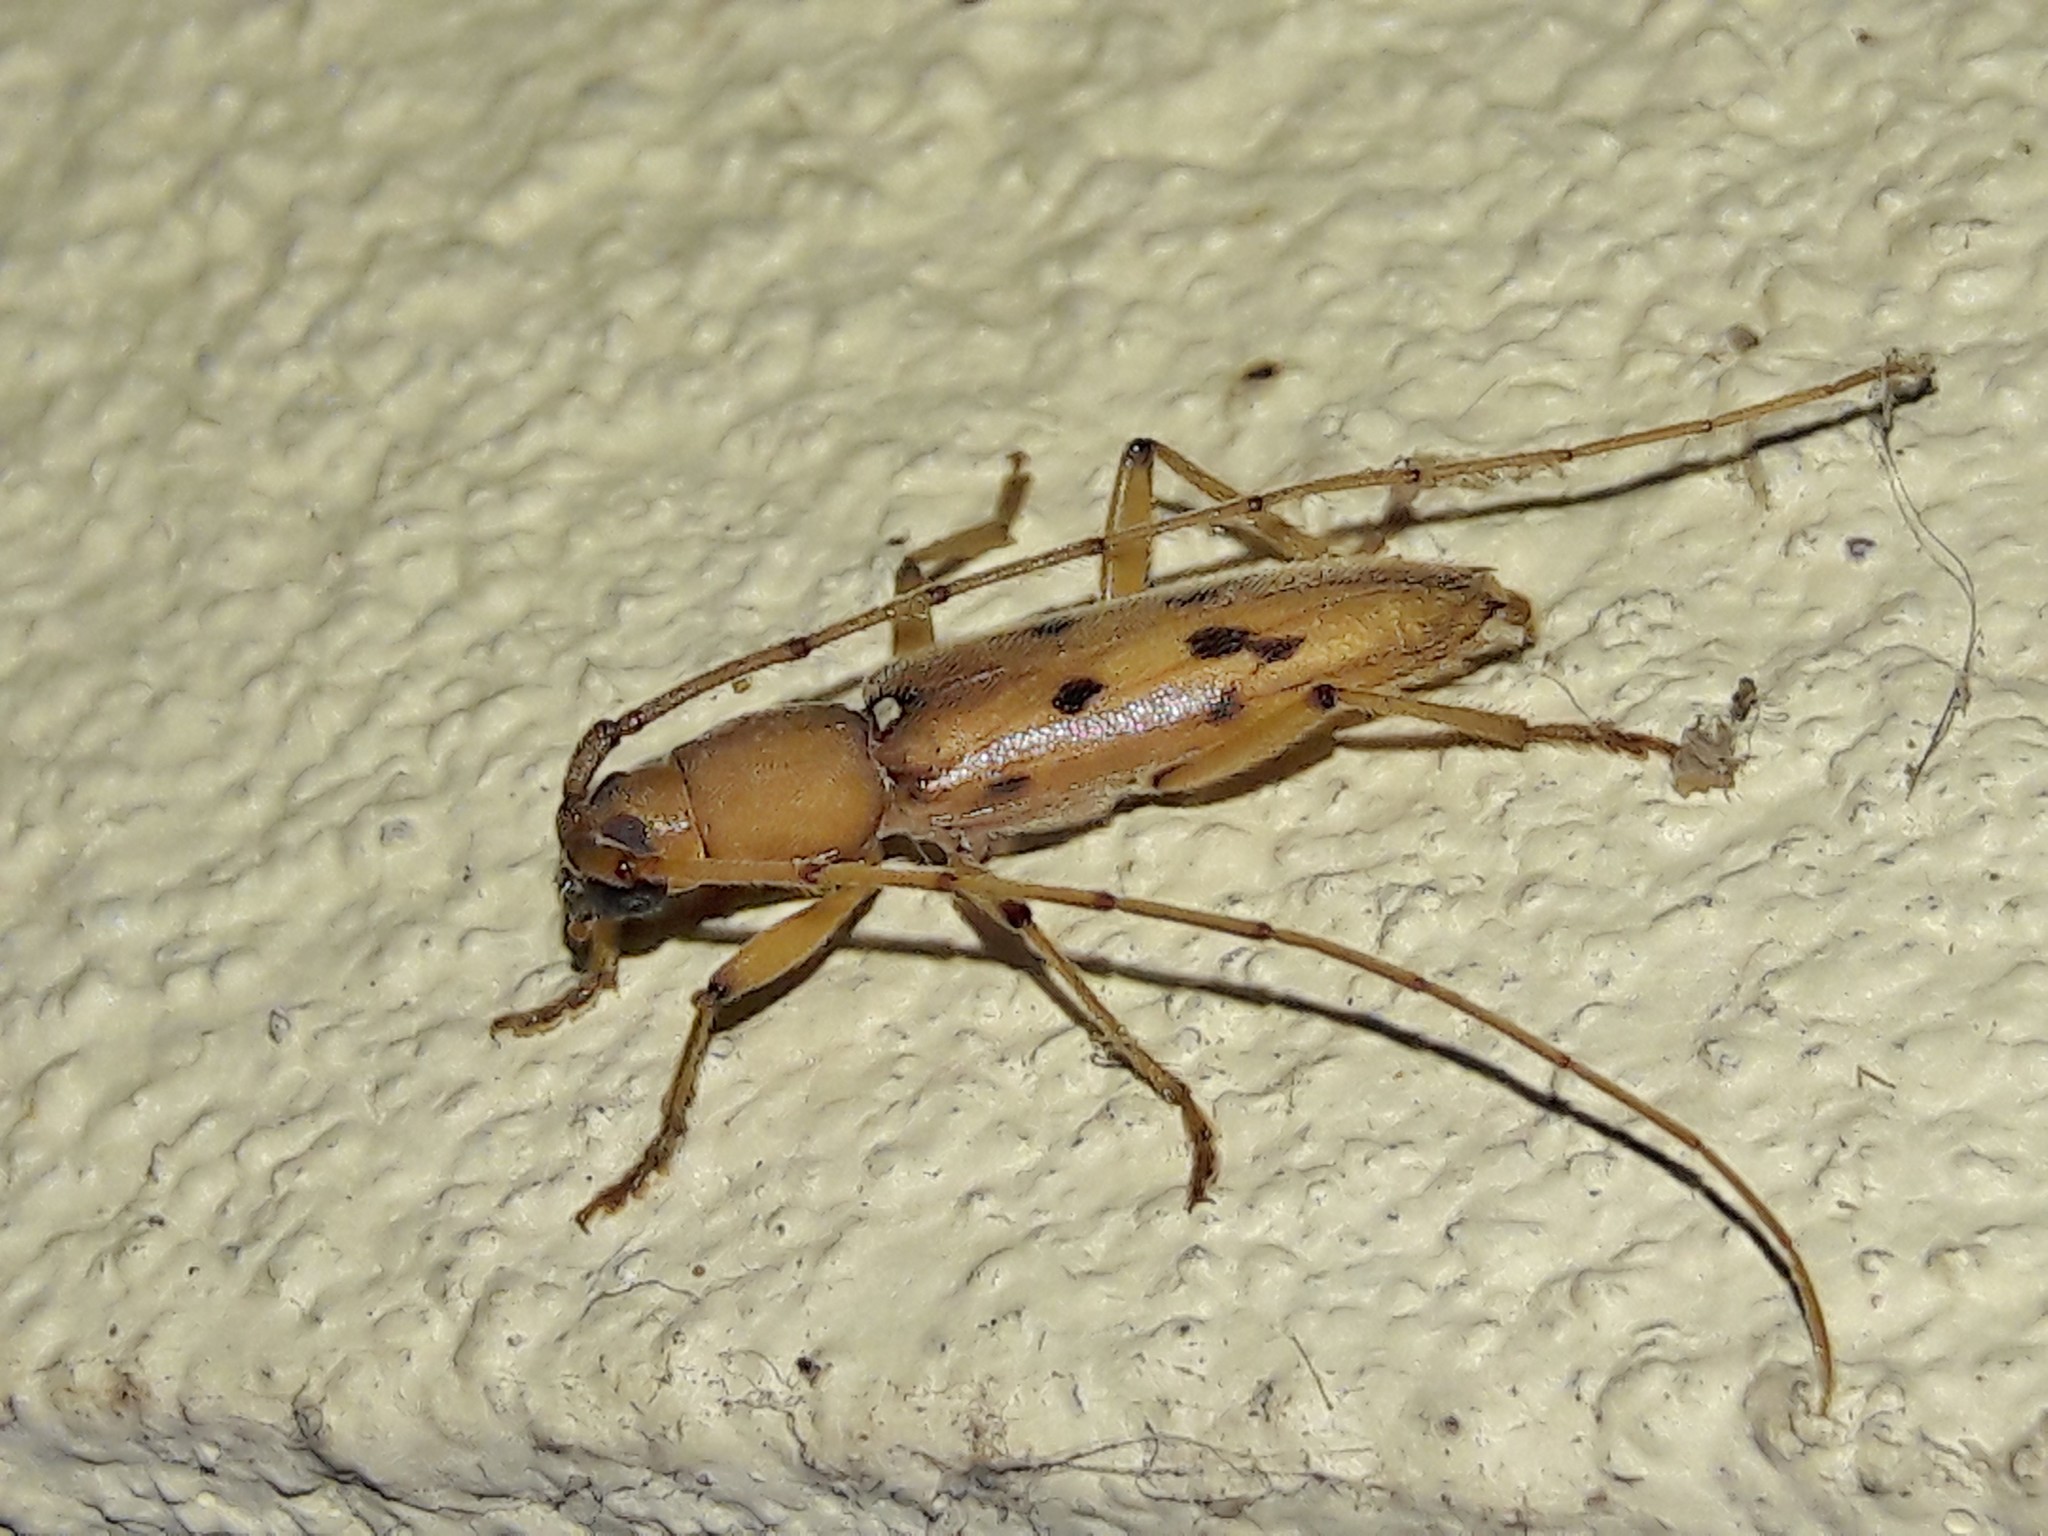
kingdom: Animalia
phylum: Arthropoda
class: Insecta
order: Coleoptera
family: Cerambycidae
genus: Achryson
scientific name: Achryson surinamum
